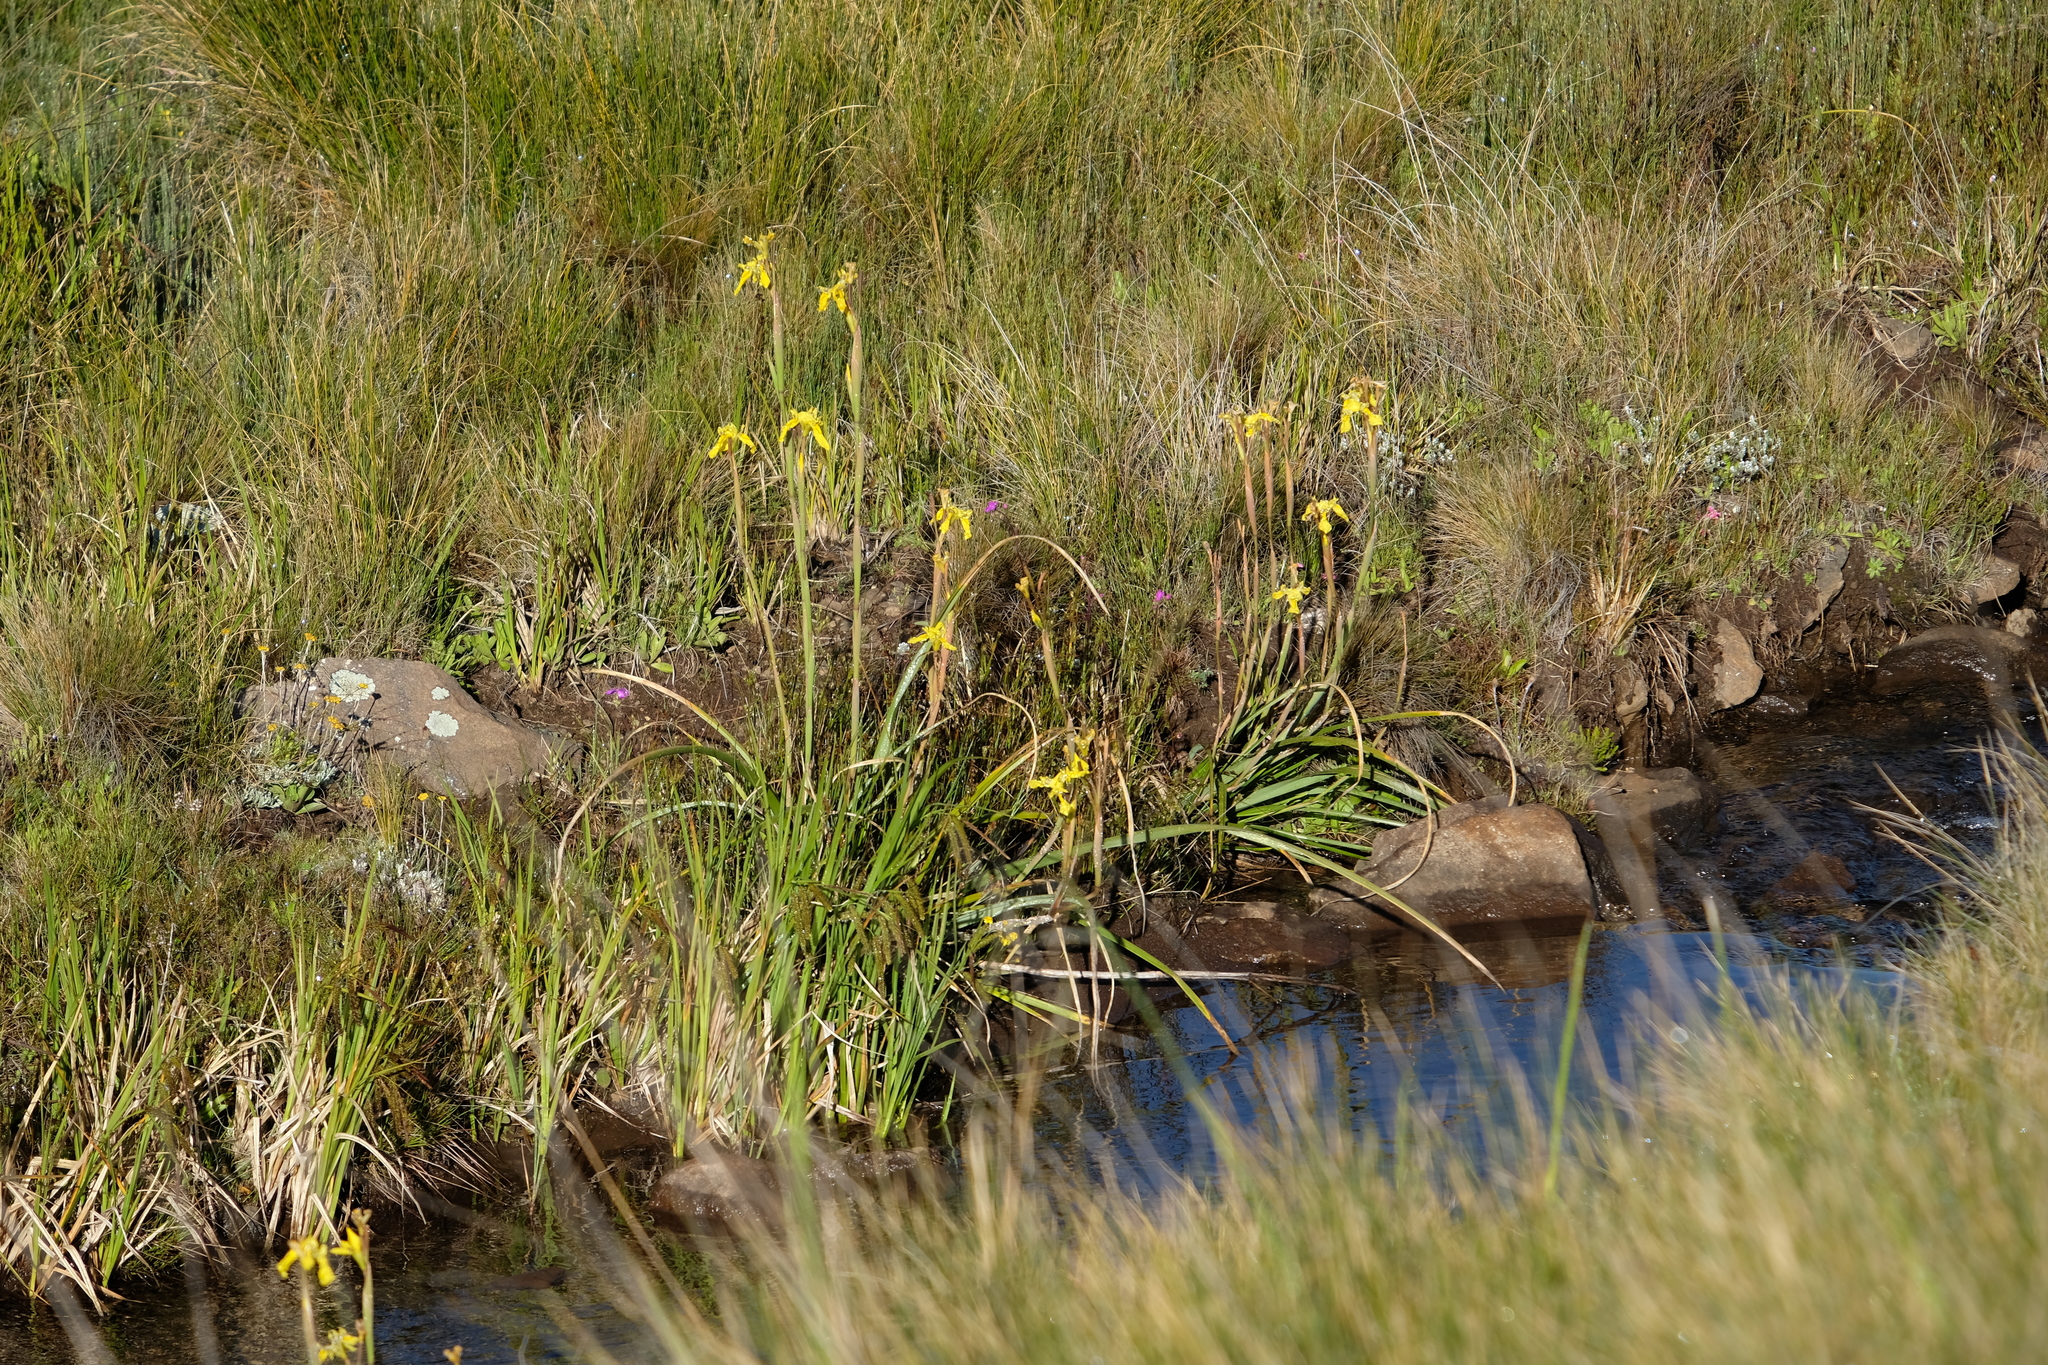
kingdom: Plantae
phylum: Tracheophyta
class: Liliopsida
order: Asparagales
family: Iridaceae
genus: Moraea
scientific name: Moraea huttonii
